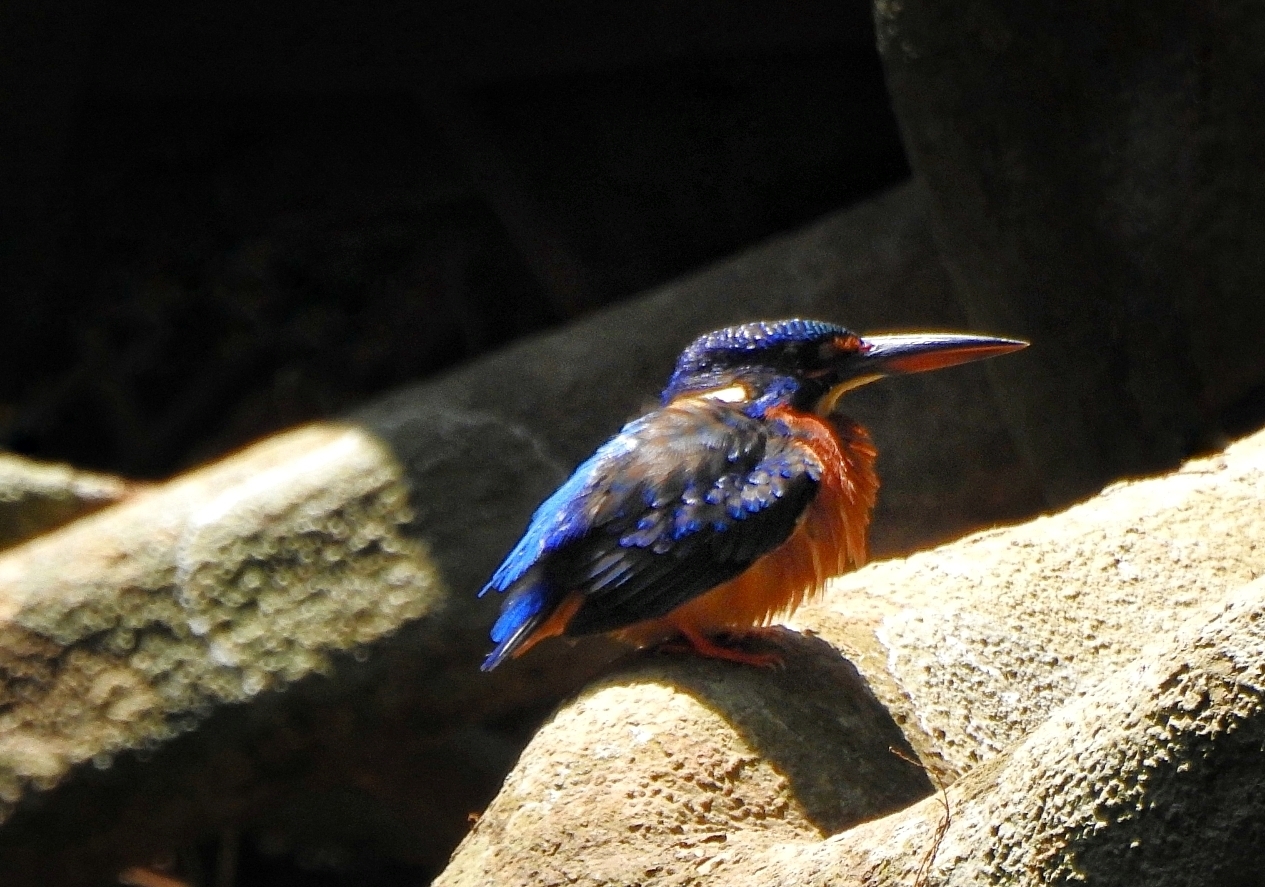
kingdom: Animalia
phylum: Chordata
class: Aves
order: Coraciiformes
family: Alcedinidae
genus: Alcedo
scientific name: Alcedo meninting
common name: Blue-eared kingfisher
